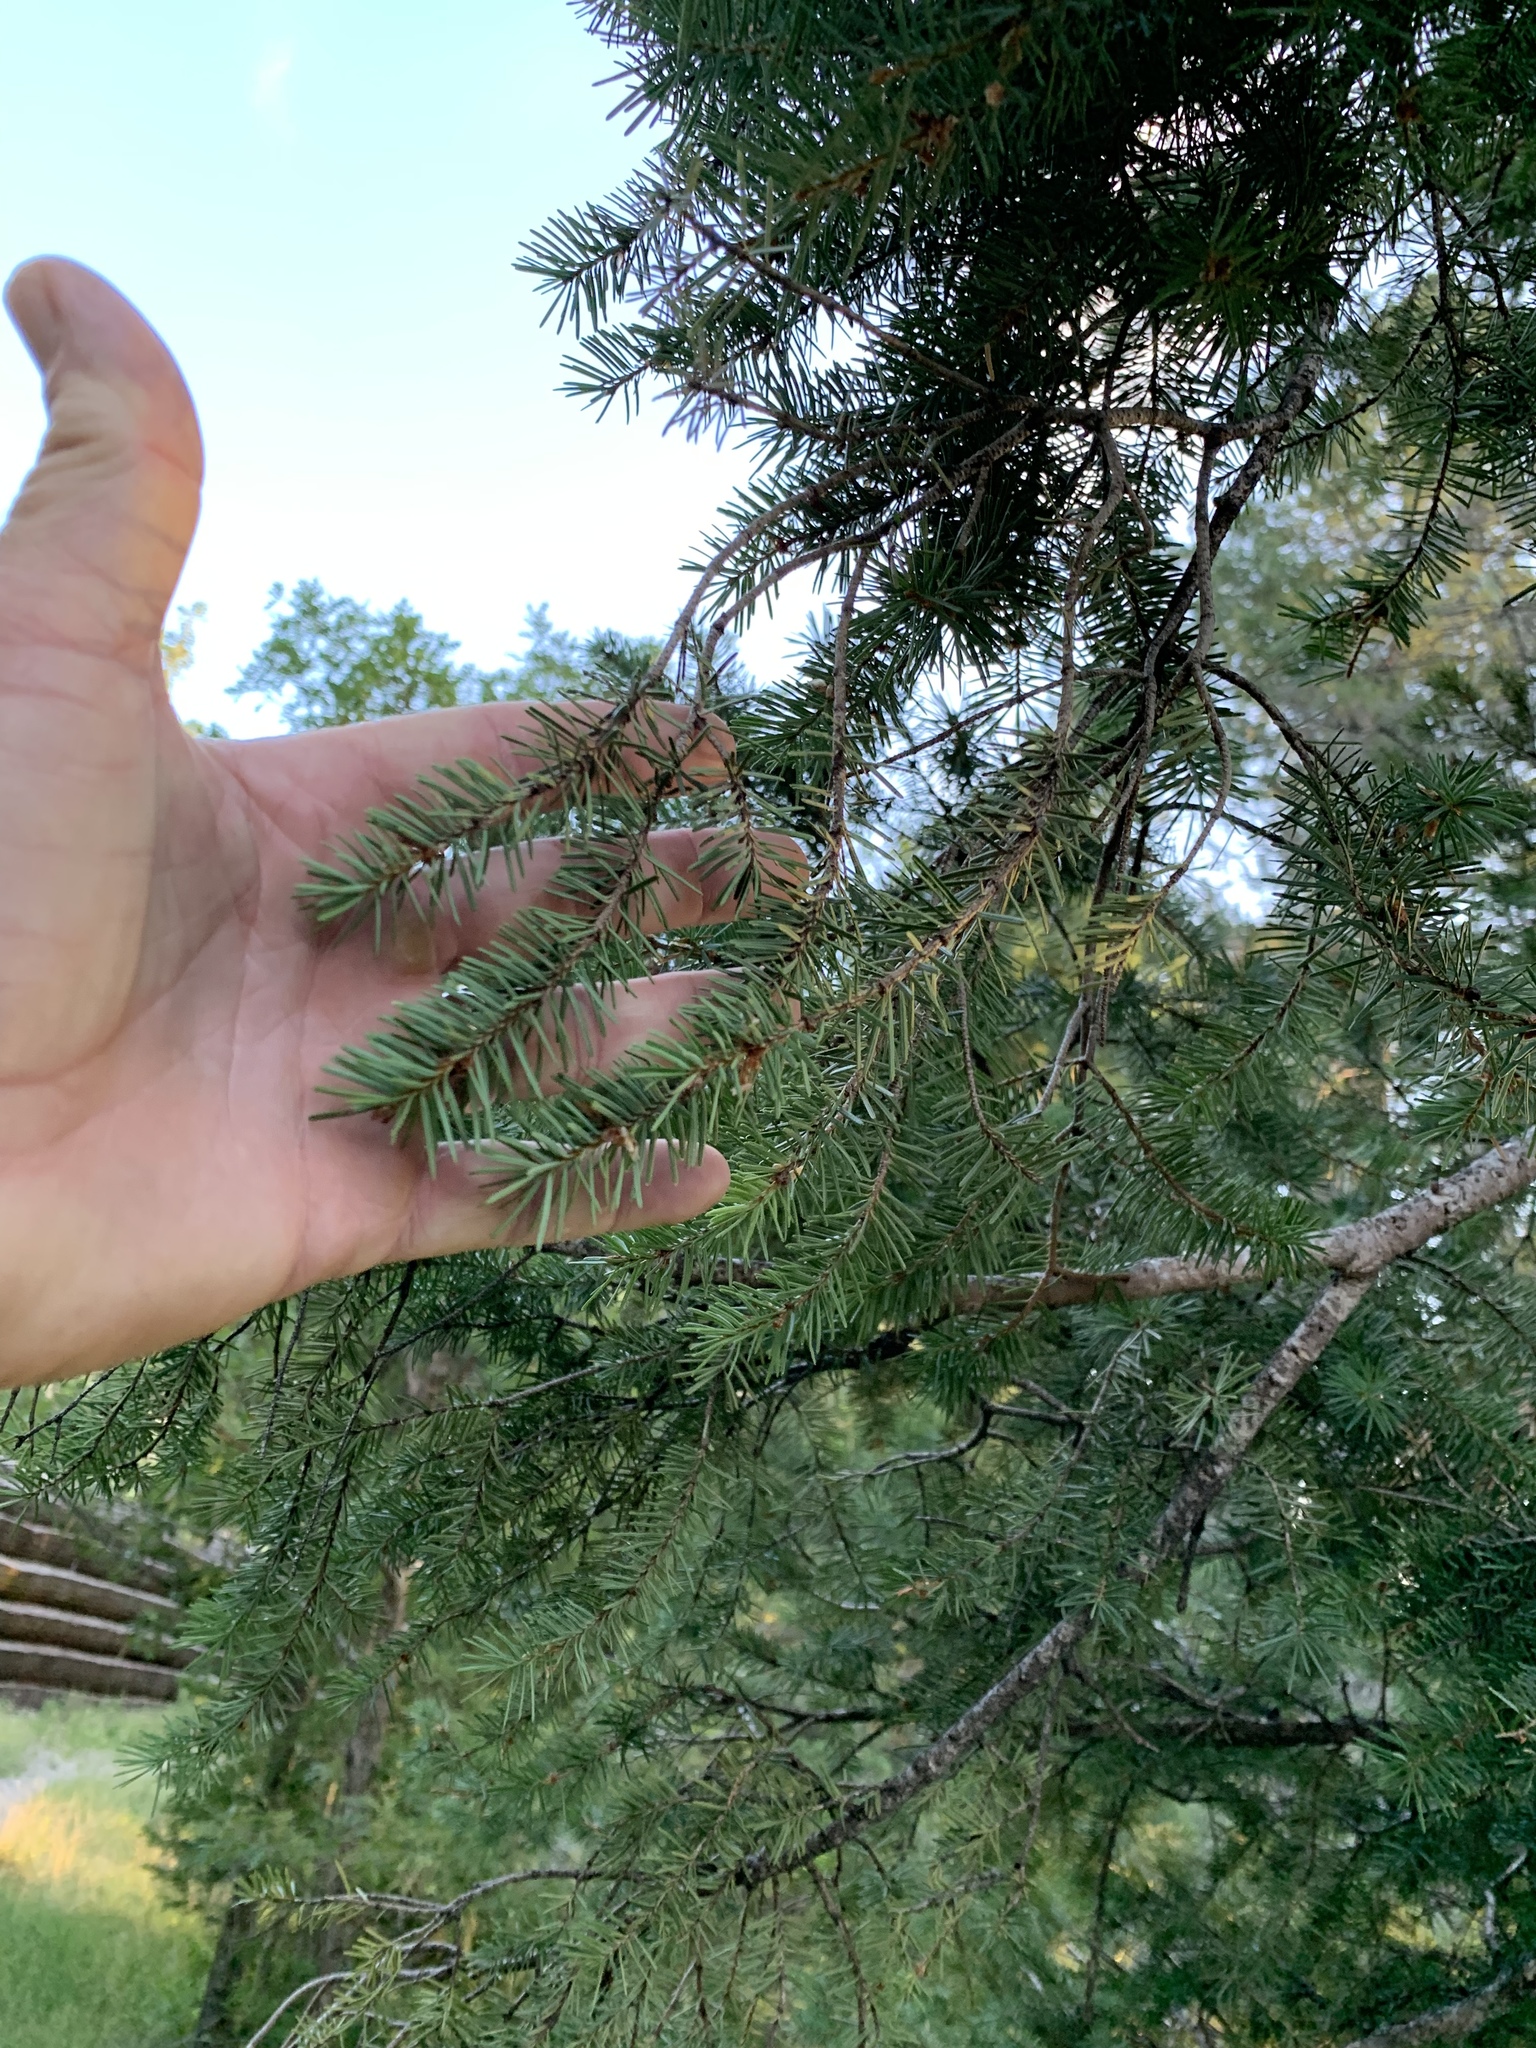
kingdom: Plantae
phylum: Tracheophyta
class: Pinopsida
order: Pinales
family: Pinaceae
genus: Pseudotsuga
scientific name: Pseudotsuga menziesii
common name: Douglas fir
